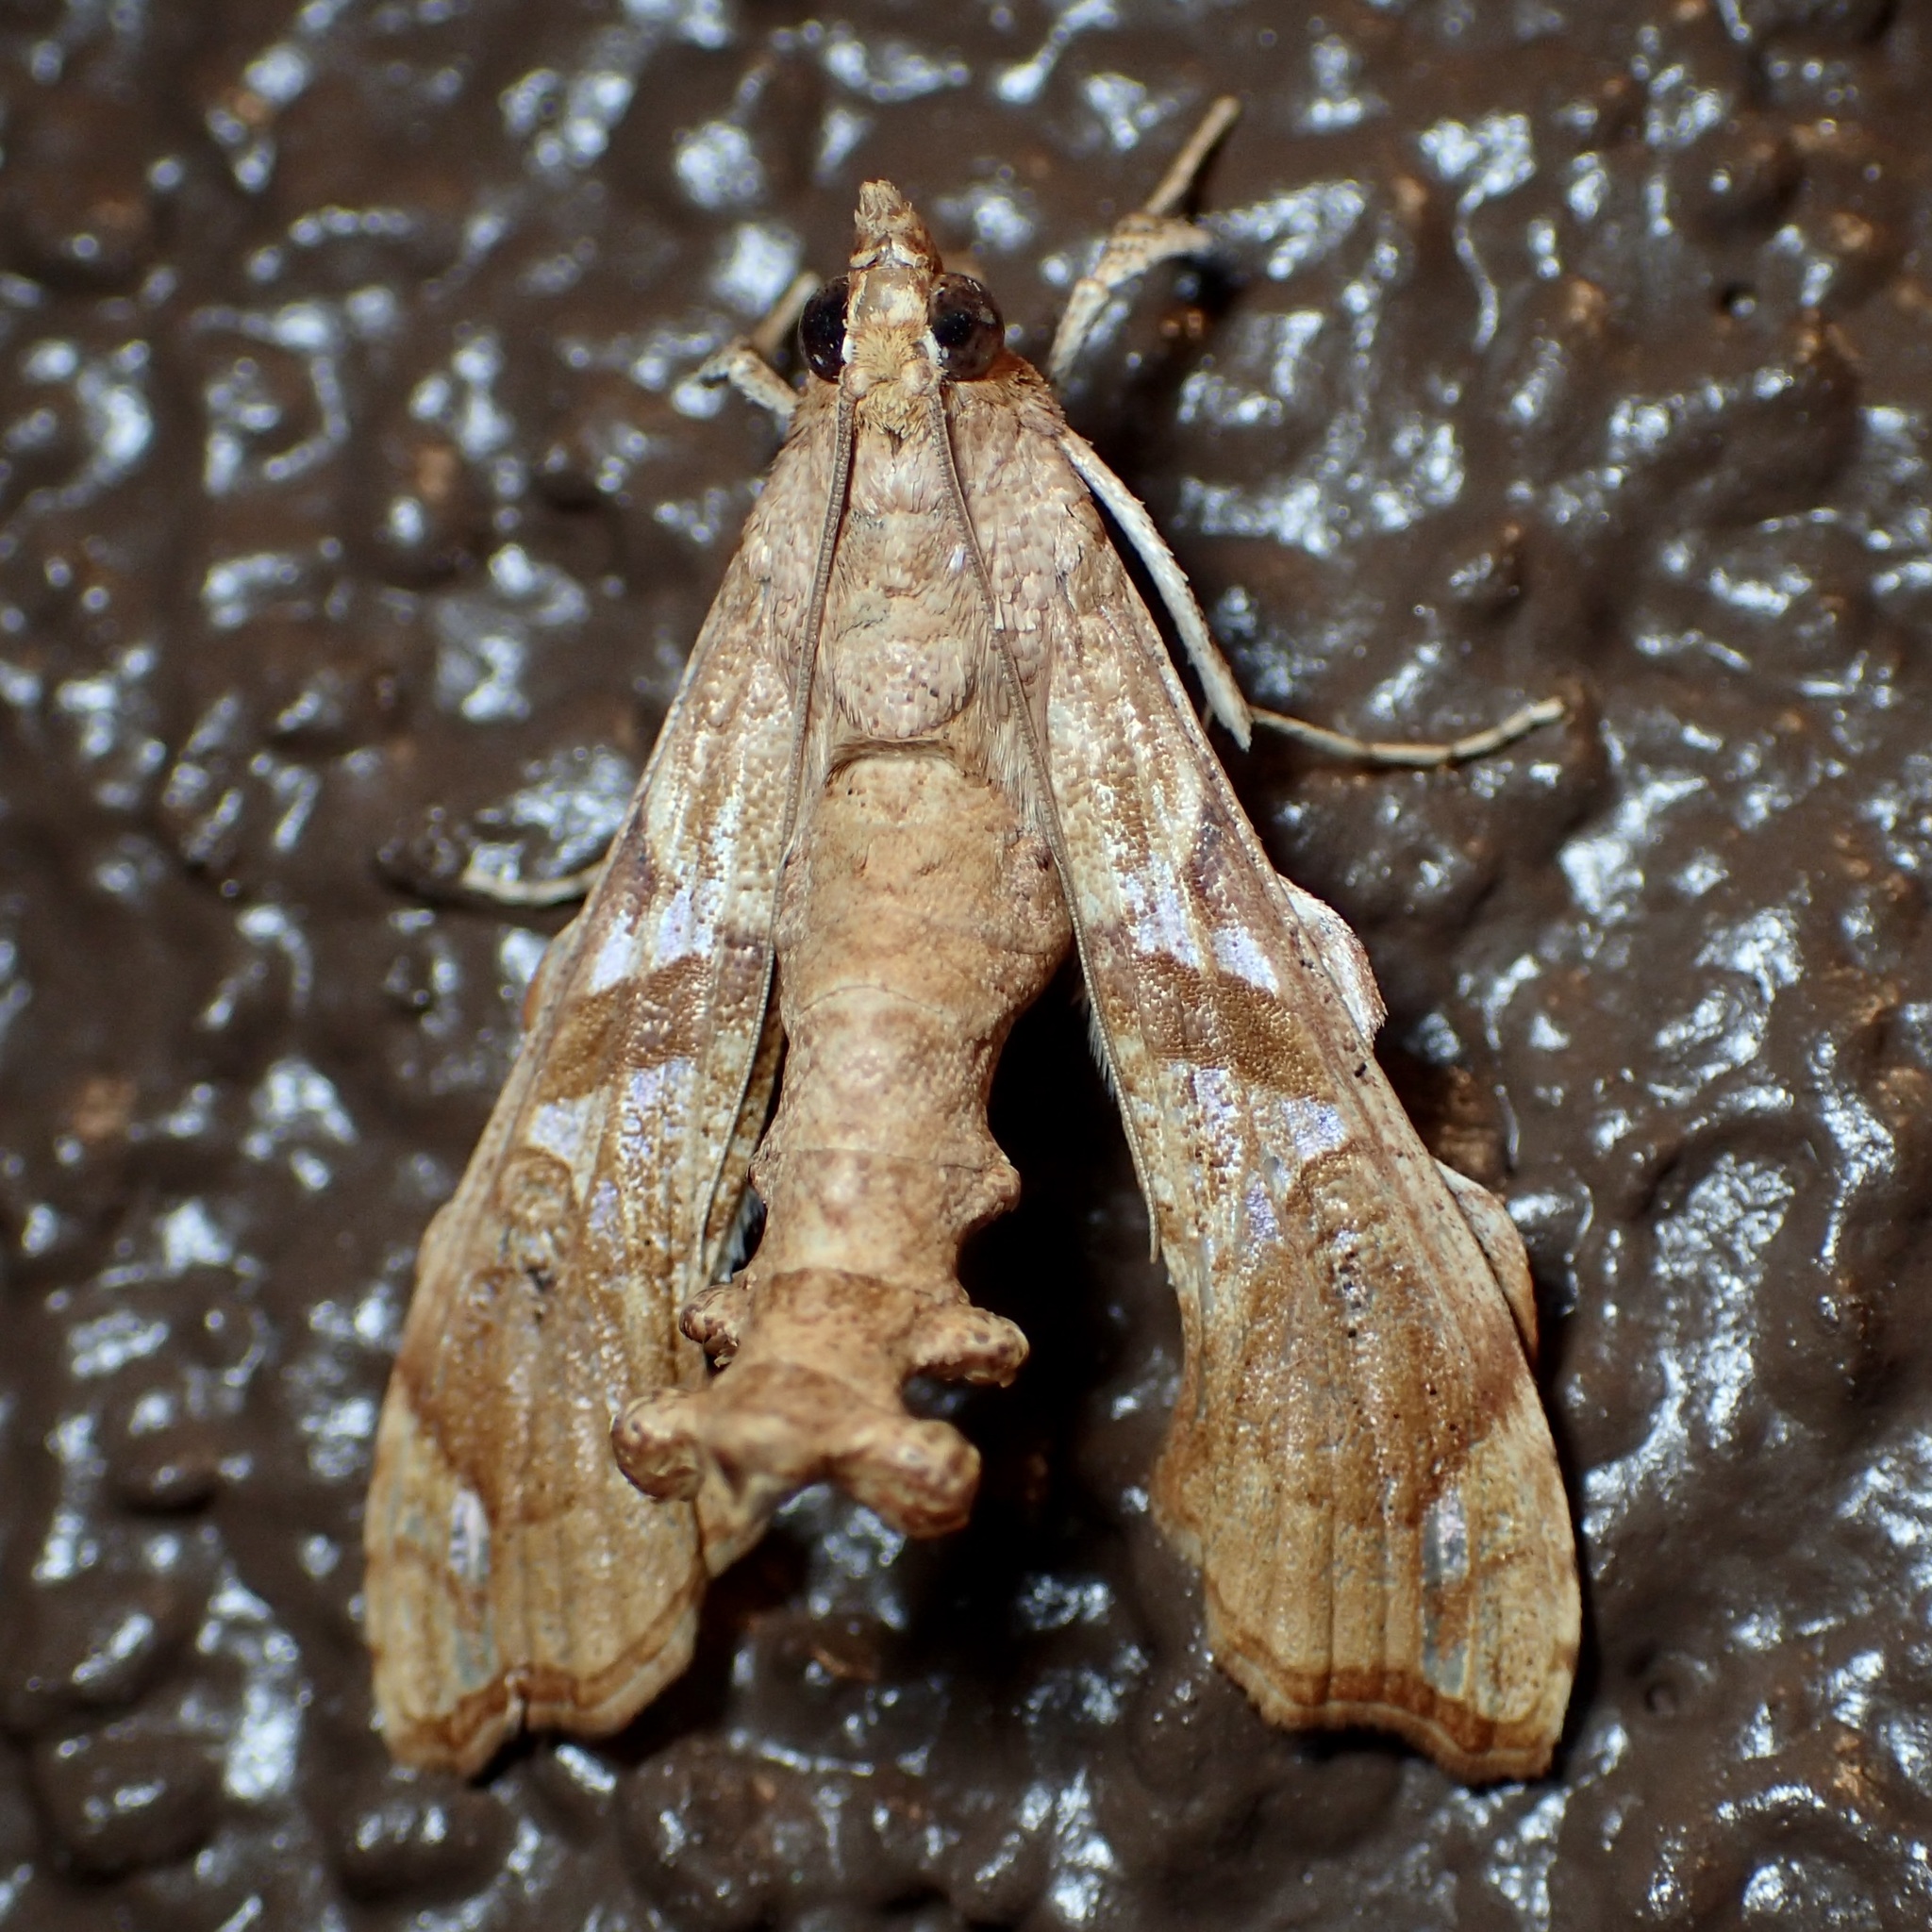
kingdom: Animalia
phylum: Arthropoda
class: Insecta
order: Lepidoptera
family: Crambidae
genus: Terastia
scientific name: Terastia meticulosalis
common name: Moth
